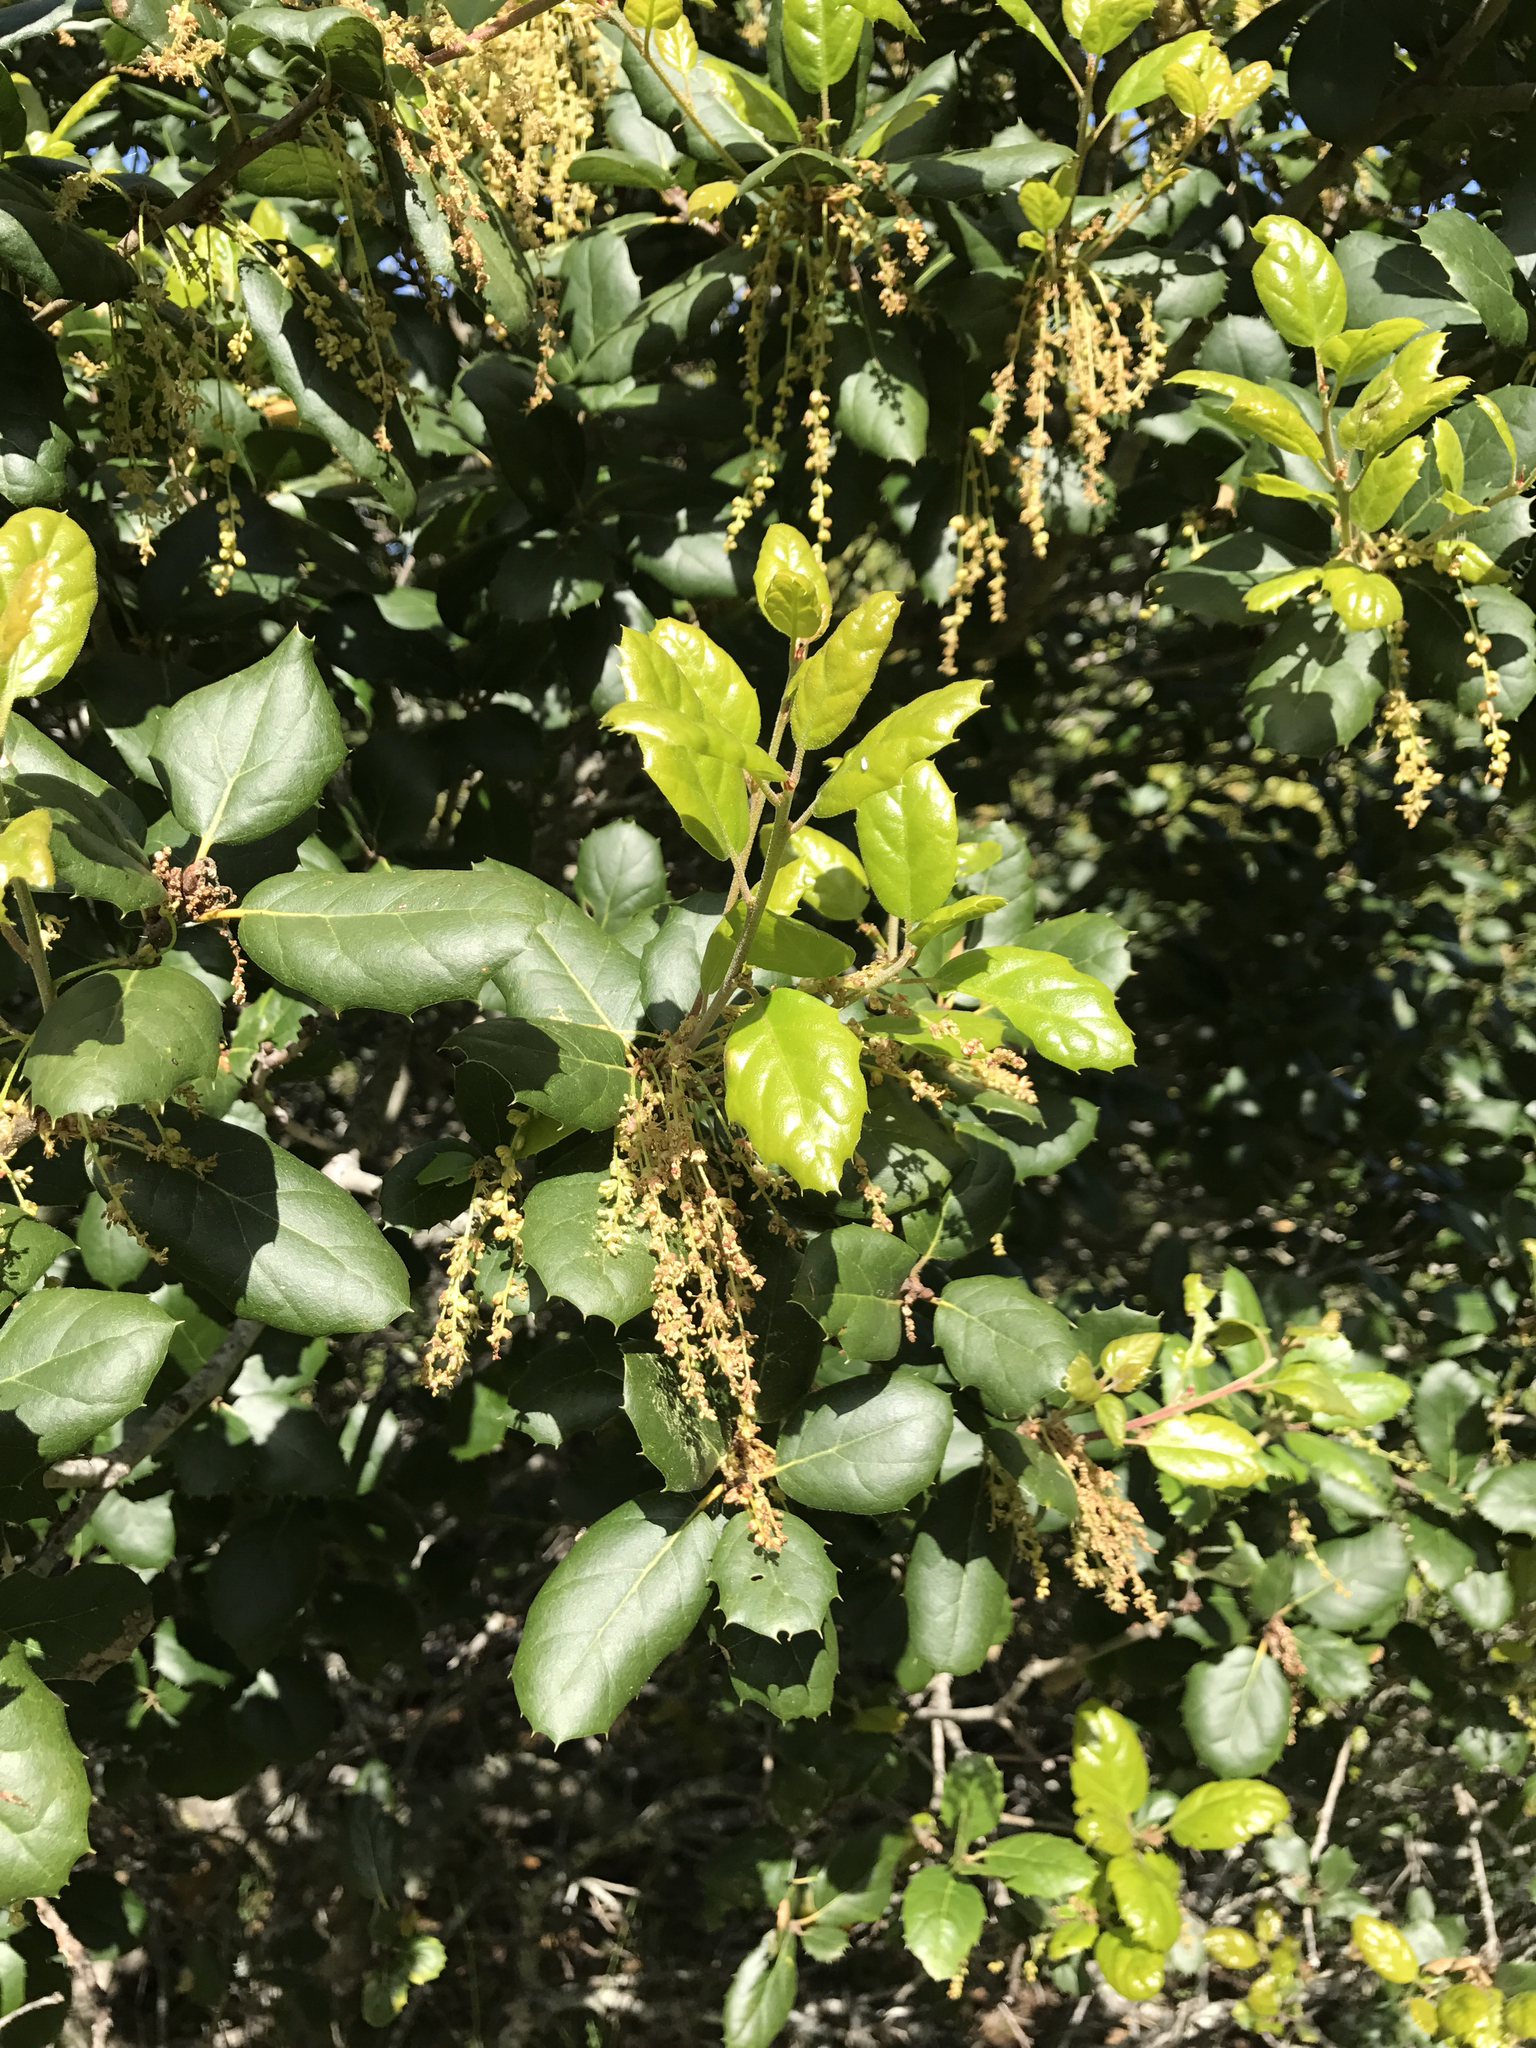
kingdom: Plantae
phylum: Tracheophyta
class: Magnoliopsida
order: Fagales
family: Fagaceae
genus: Quercus
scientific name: Quercus agrifolia
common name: California live oak
